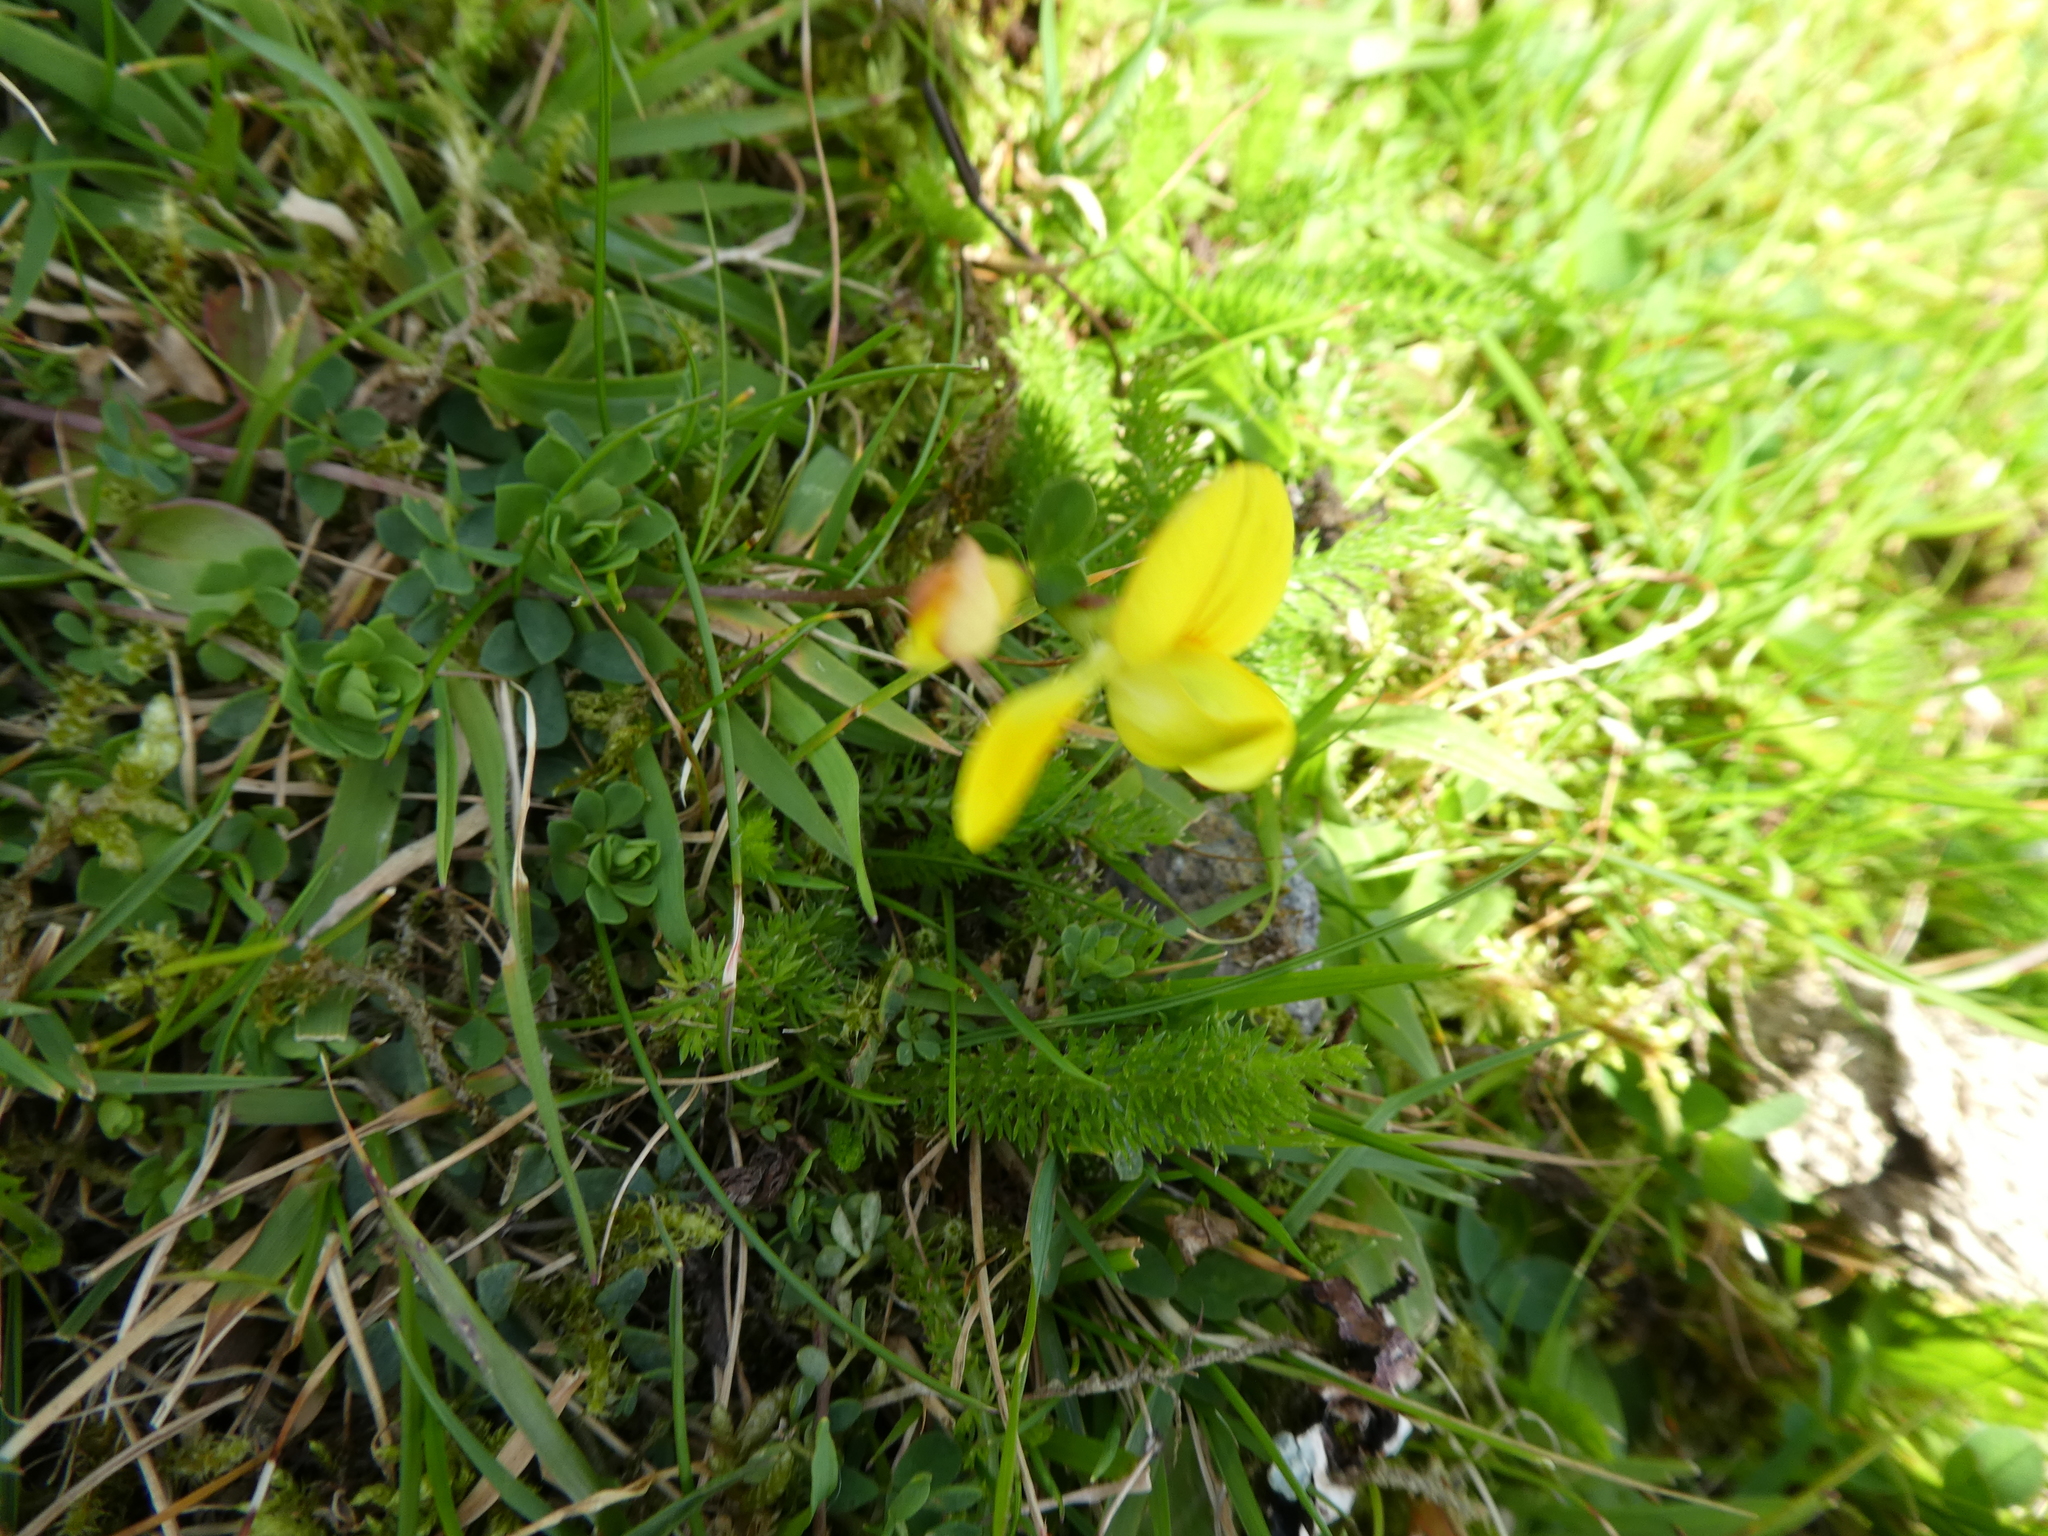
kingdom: Plantae
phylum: Tracheophyta
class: Magnoliopsida
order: Fabales
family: Fabaceae
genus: Lotus
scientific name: Lotus corniculatus
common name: Common bird's-foot-trefoil
